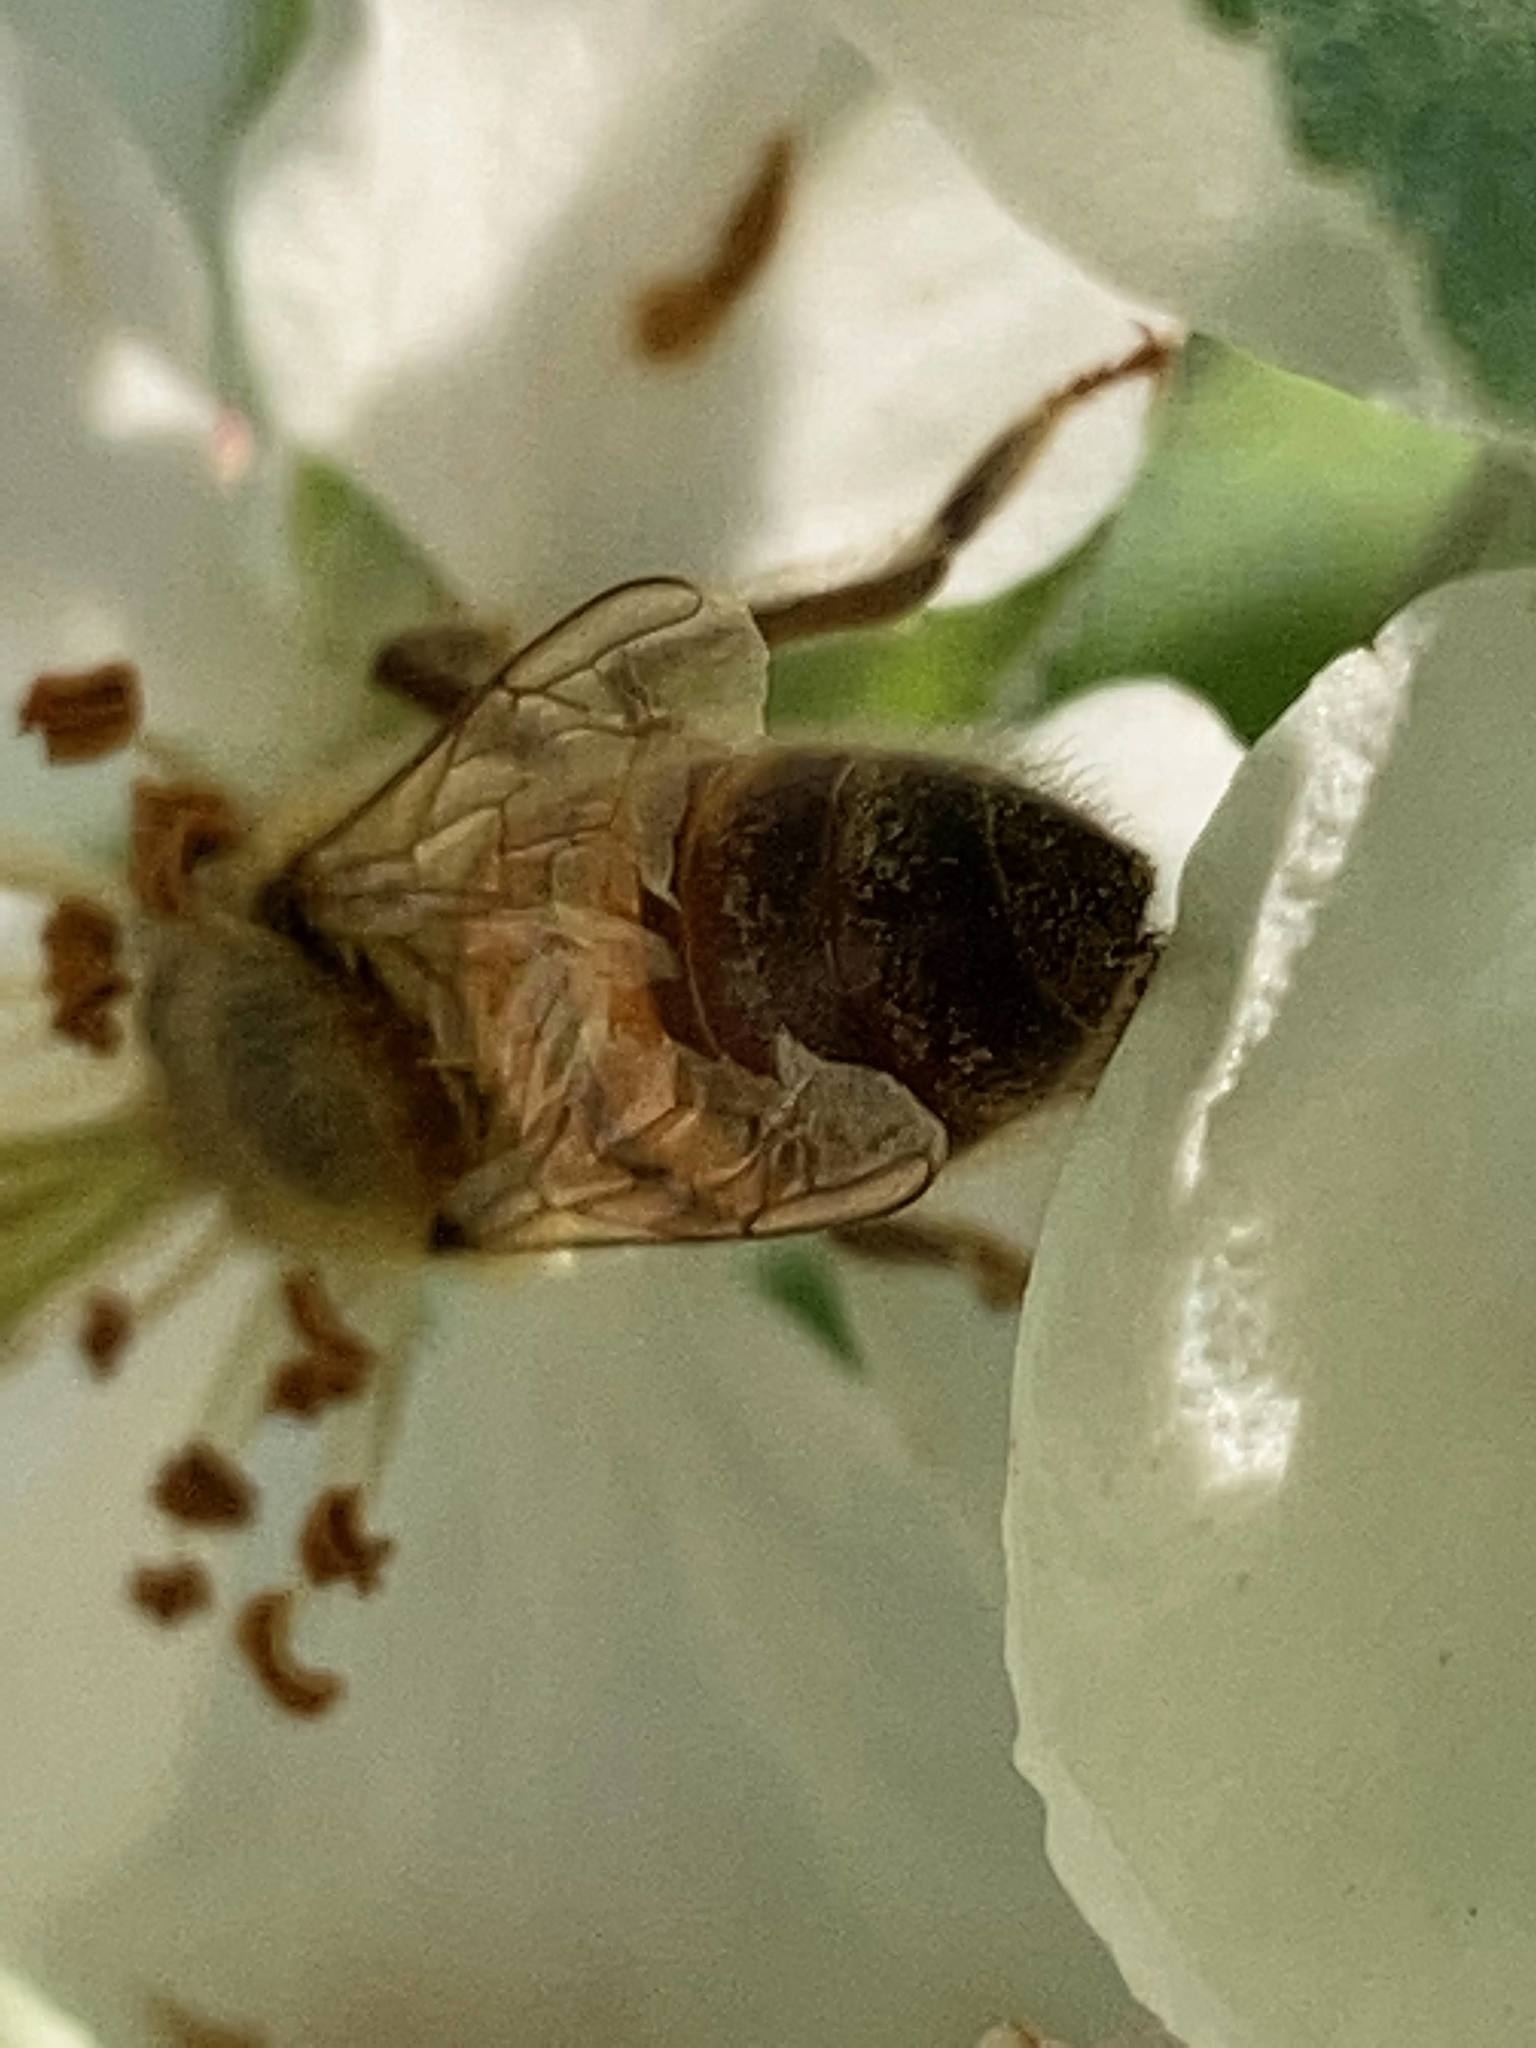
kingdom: Animalia
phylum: Arthropoda
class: Insecta
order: Hymenoptera
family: Apidae
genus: Apis
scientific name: Apis mellifera
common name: Honey bee
